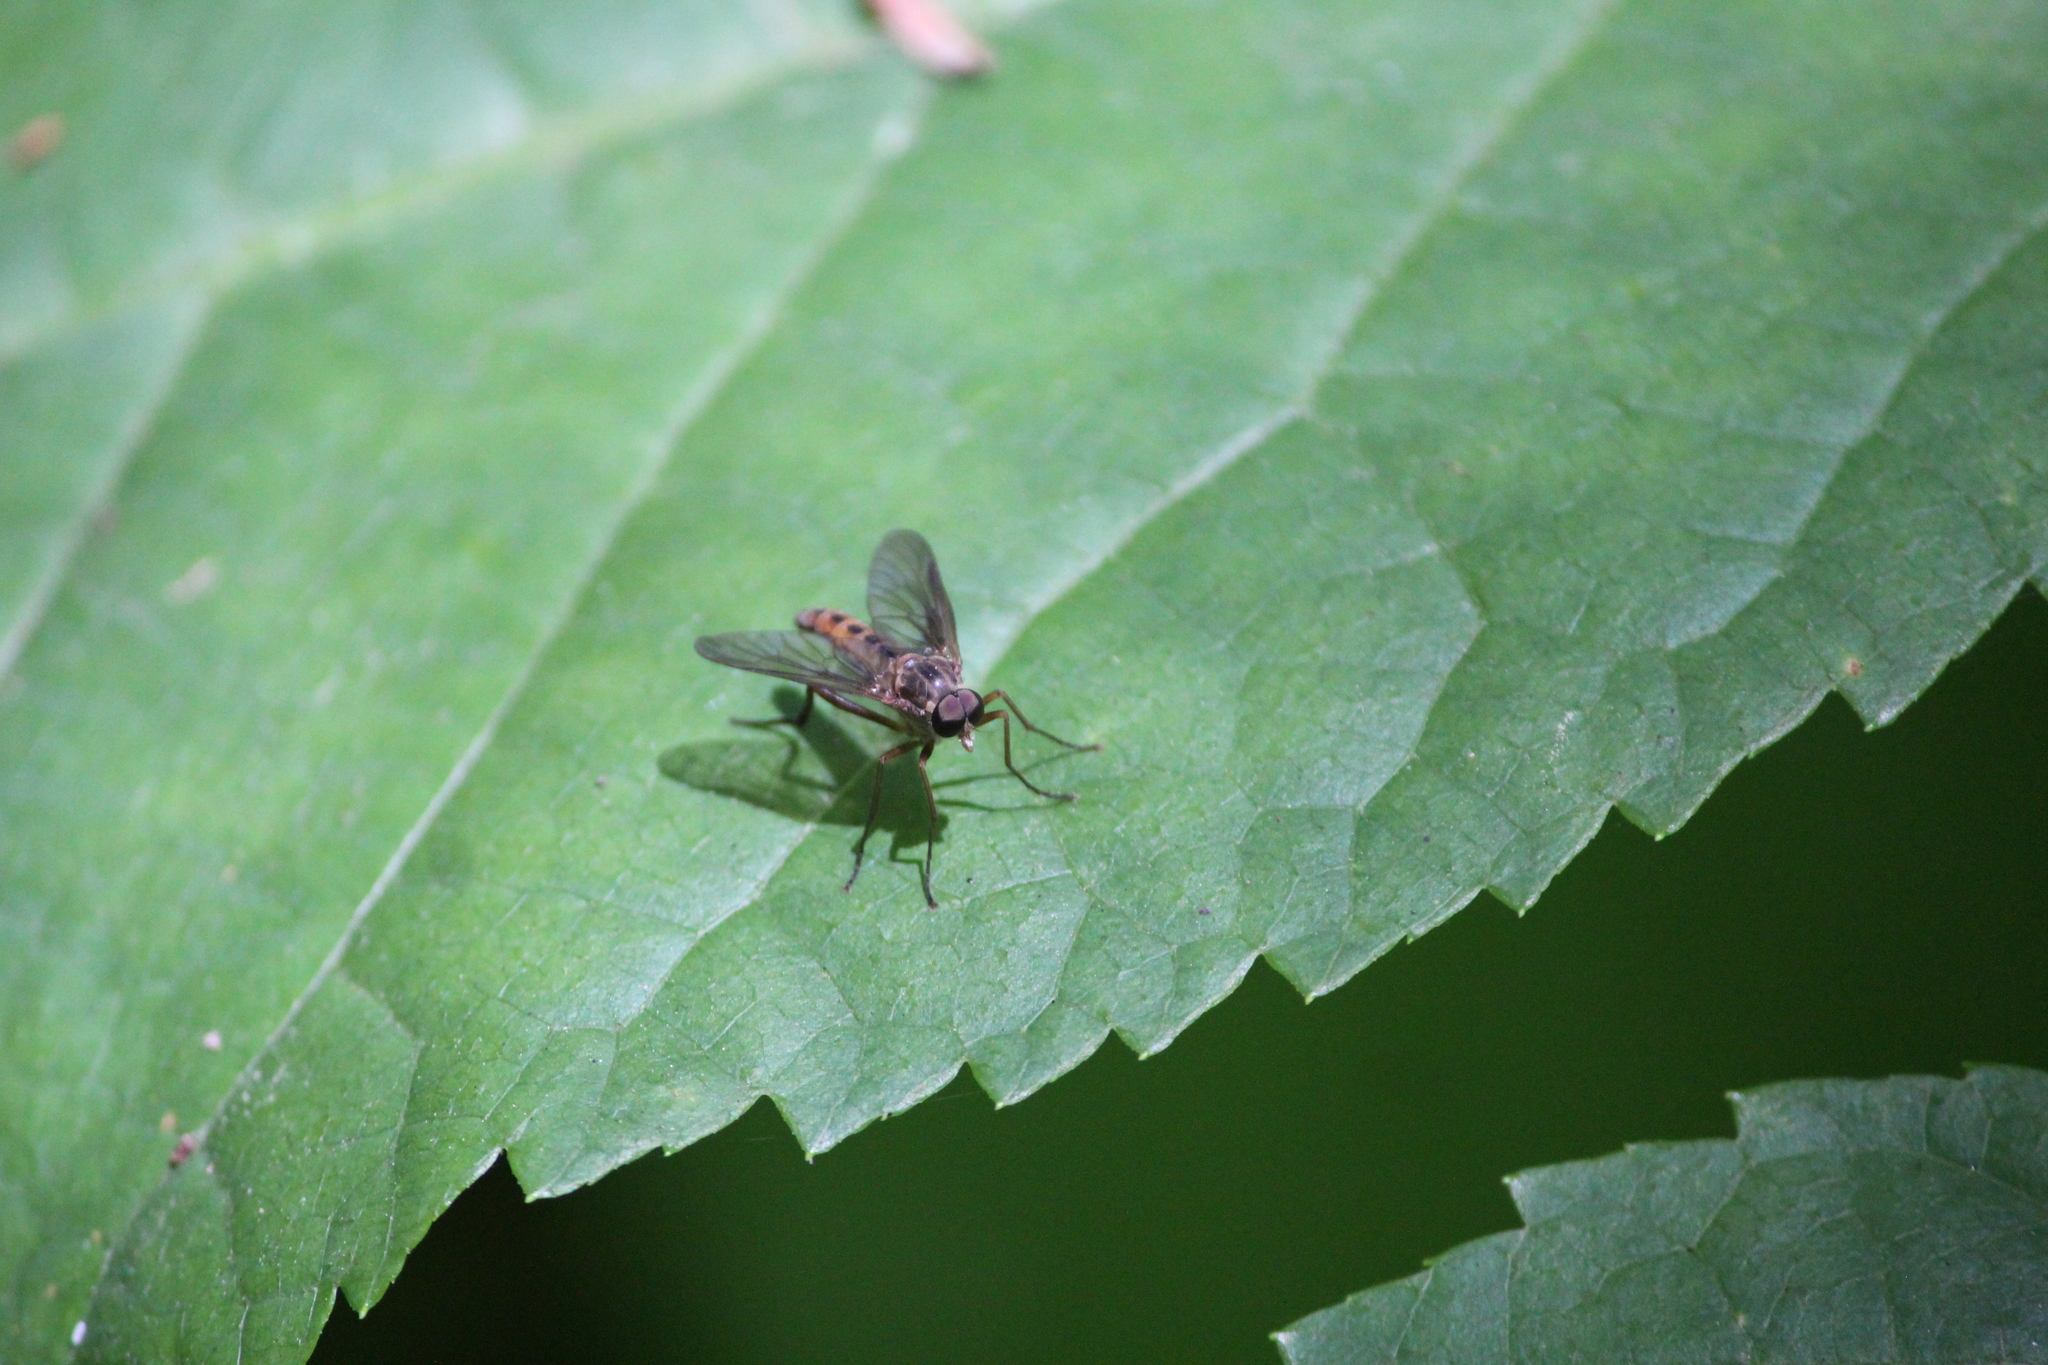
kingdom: Animalia
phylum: Arthropoda
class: Insecta
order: Diptera
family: Rhagionidae
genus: Rhagio
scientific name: Rhagio tringaria
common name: Marsh snipefly
